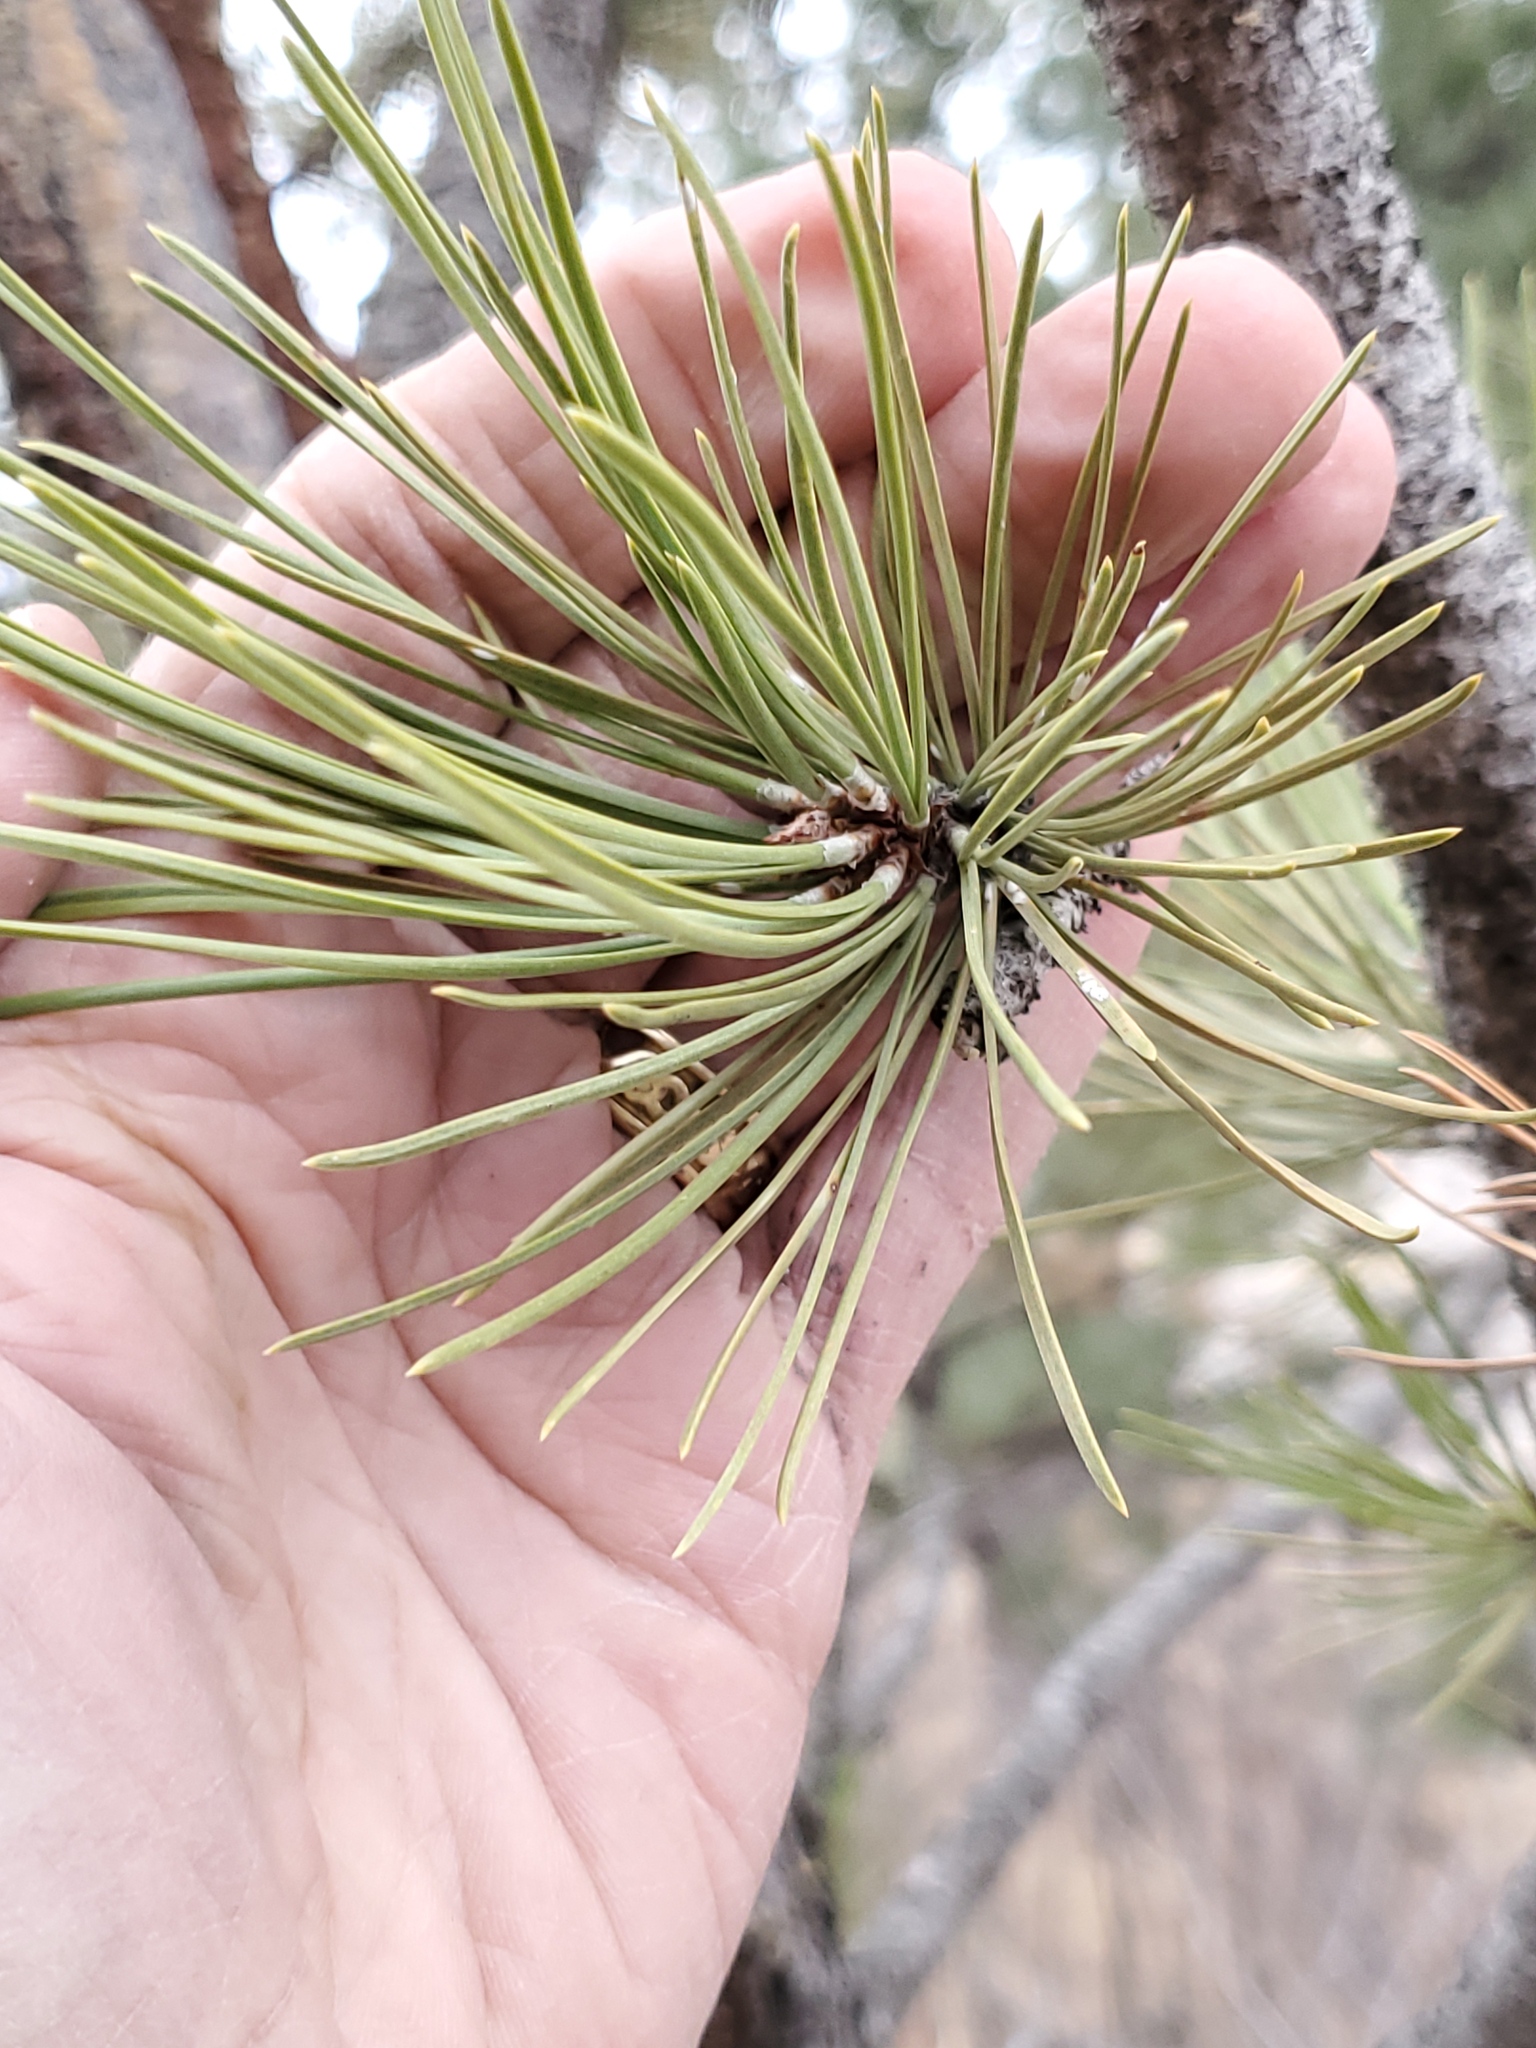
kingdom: Plantae
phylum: Tracheophyta
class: Pinopsida
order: Pinales
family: Pinaceae
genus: Pinus
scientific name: Pinus ponderosa
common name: Western yellow-pine
